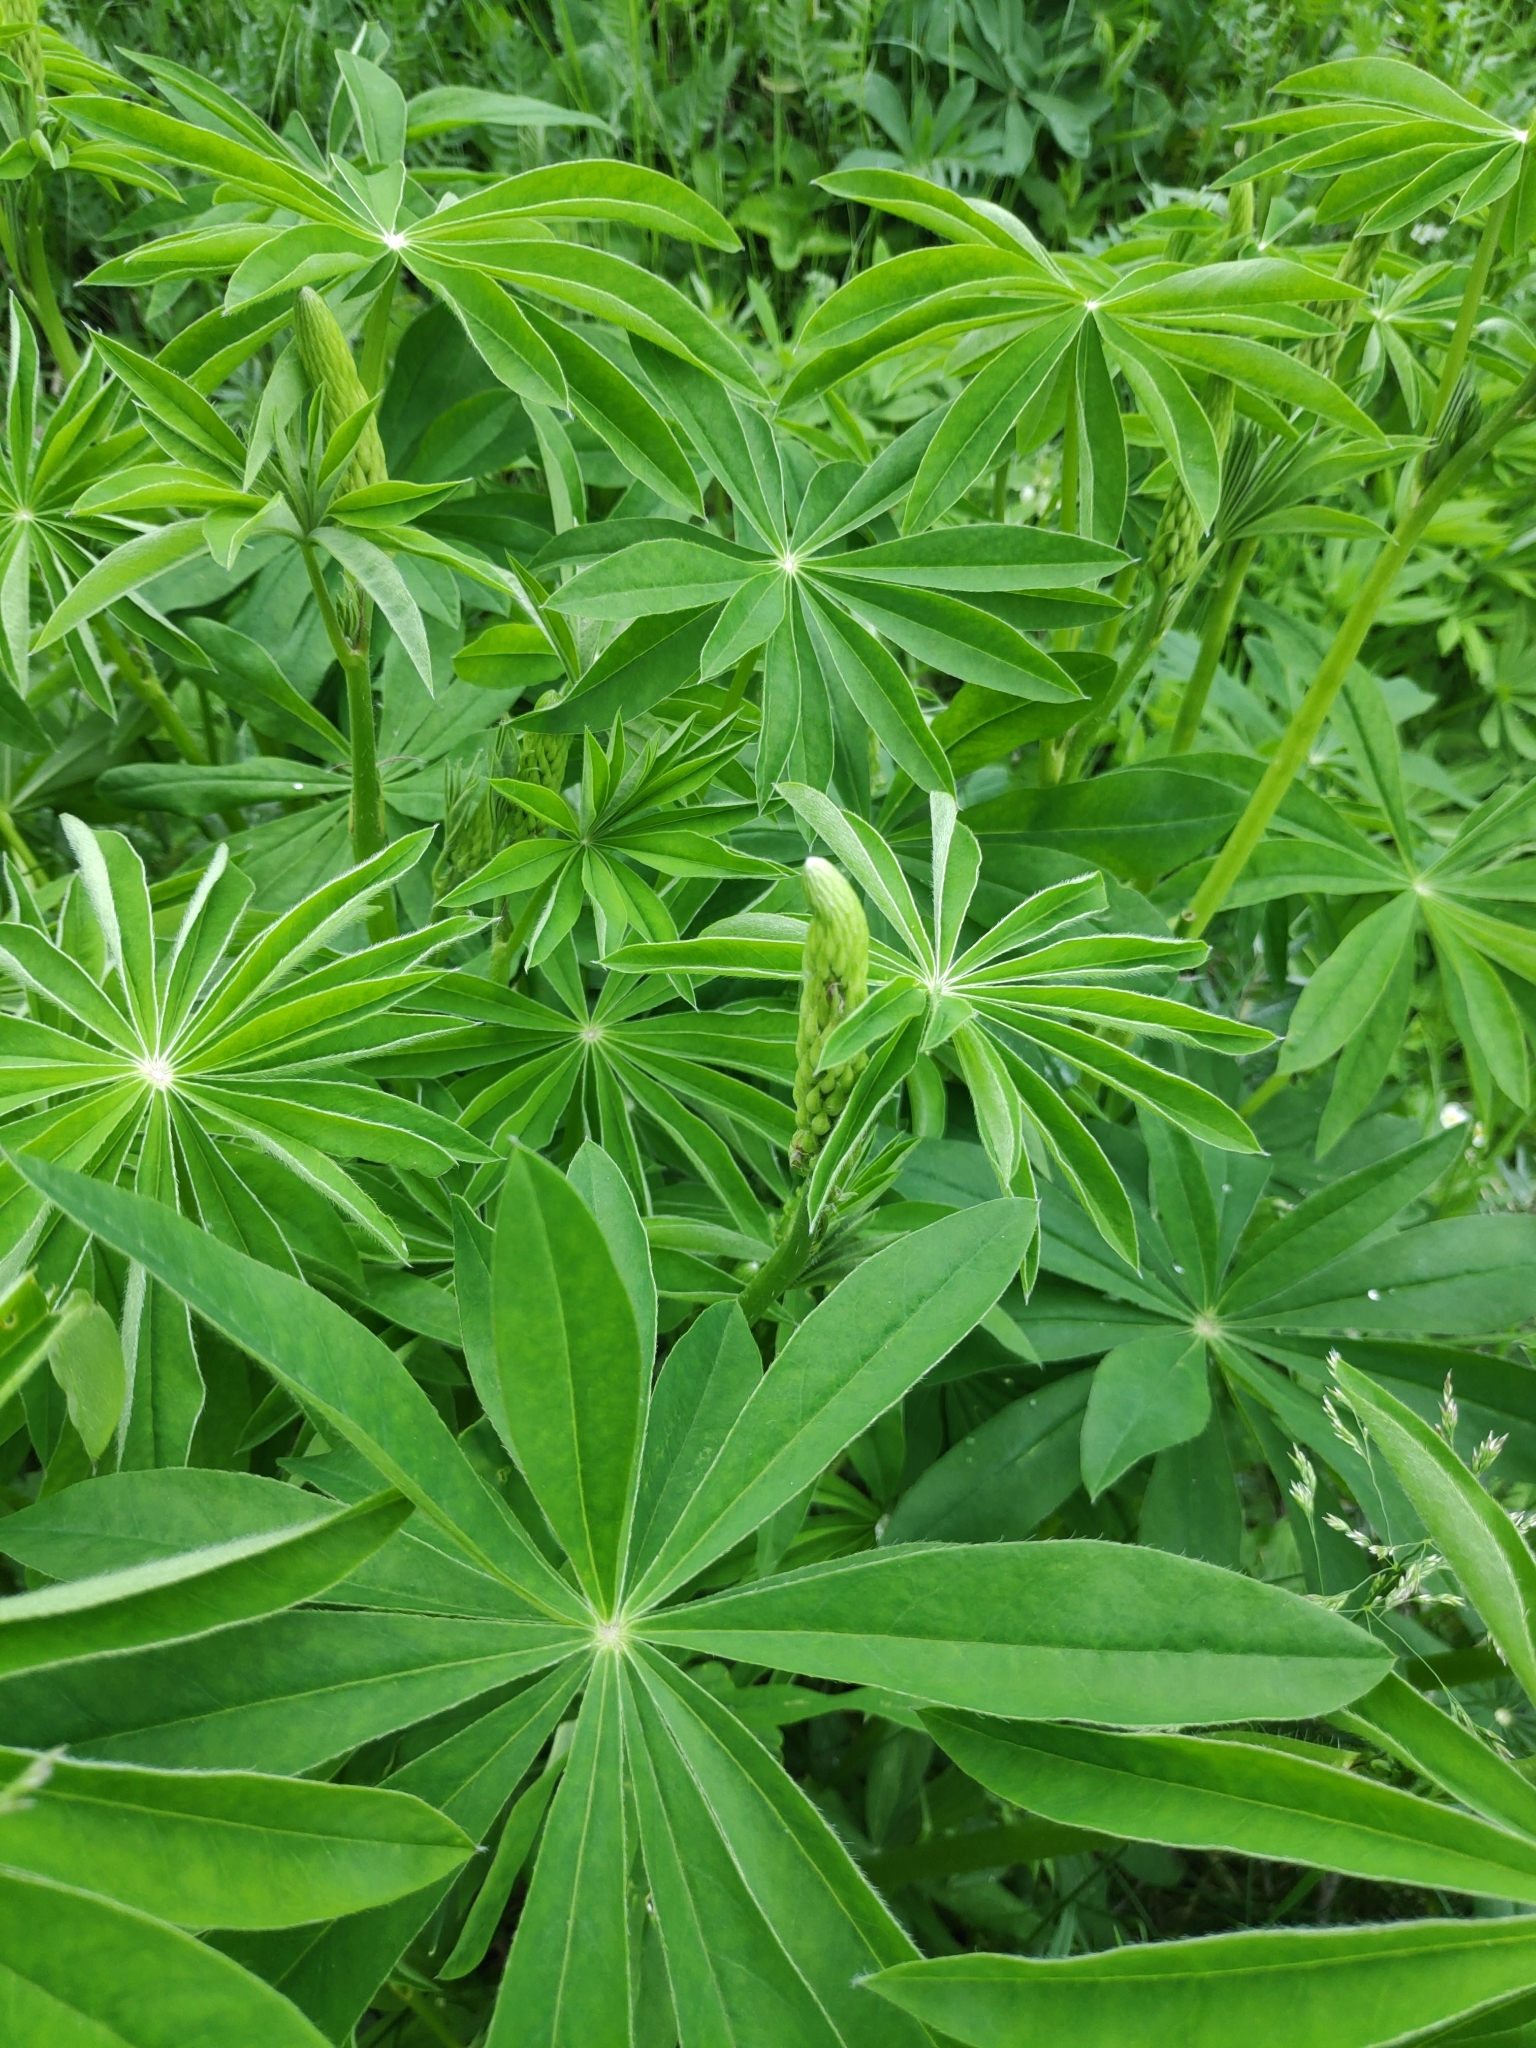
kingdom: Plantae
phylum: Tracheophyta
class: Magnoliopsida
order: Fabales
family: Fabaceae
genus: Lupinus
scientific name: Lupinus polyphyllus
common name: Garden lupin
